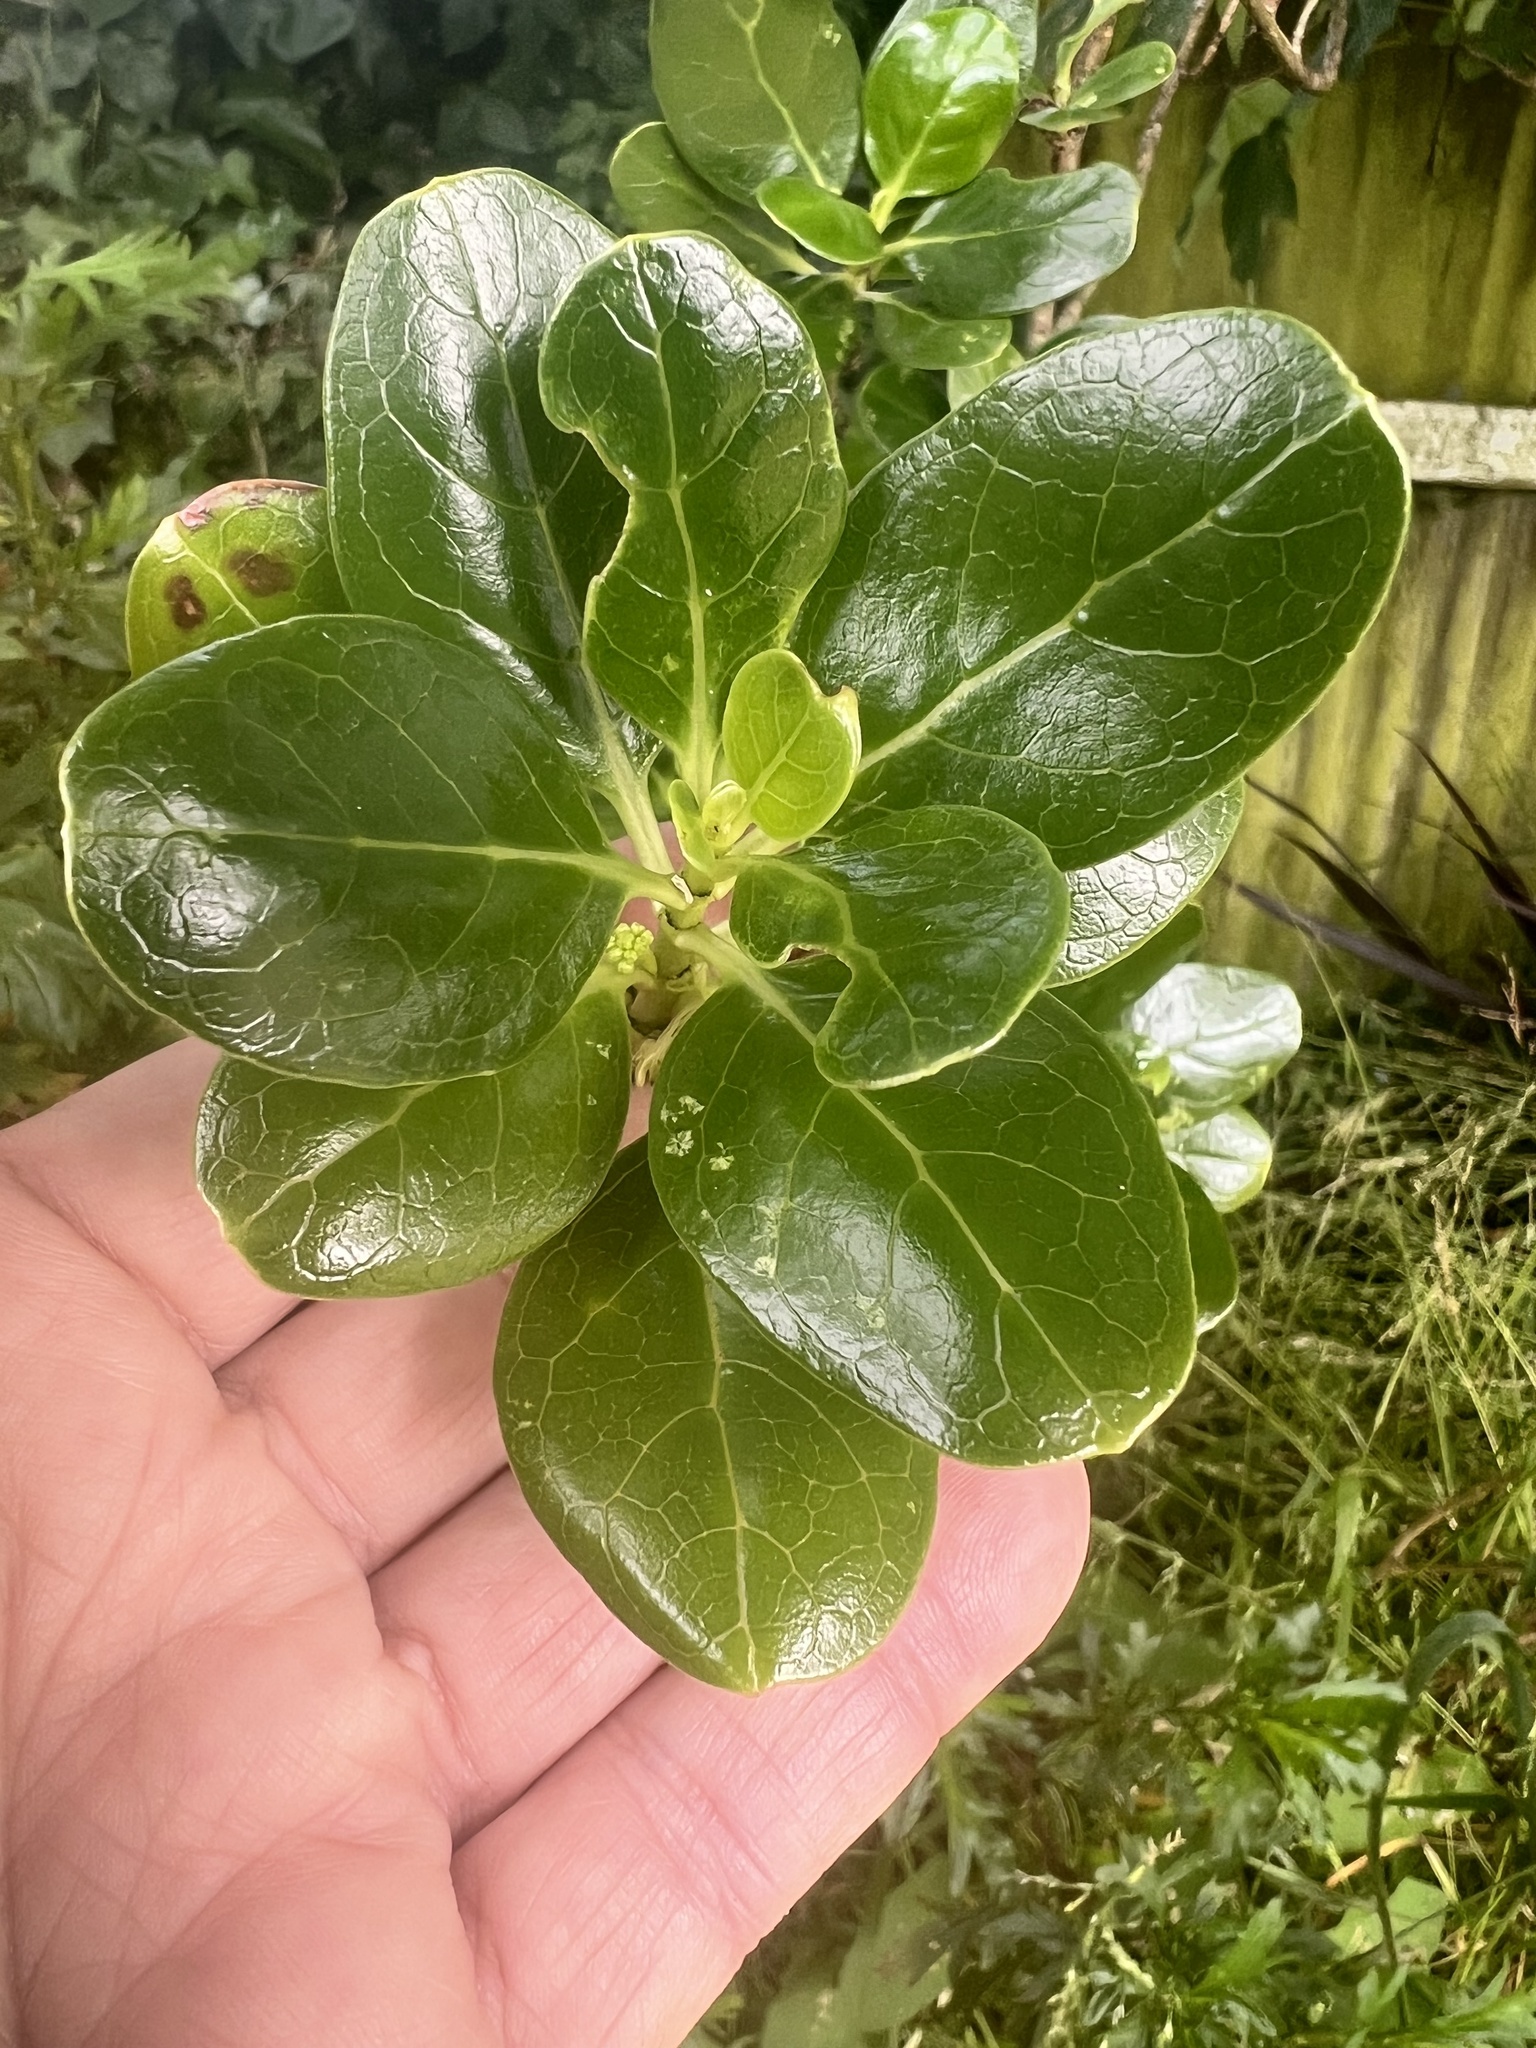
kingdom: Plantae
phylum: Tracheophyta
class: Magnoliopsida
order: Gentianales
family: Rubiaceae
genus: Coprosma
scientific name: Coprosma repens
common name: Tree bedstraw
